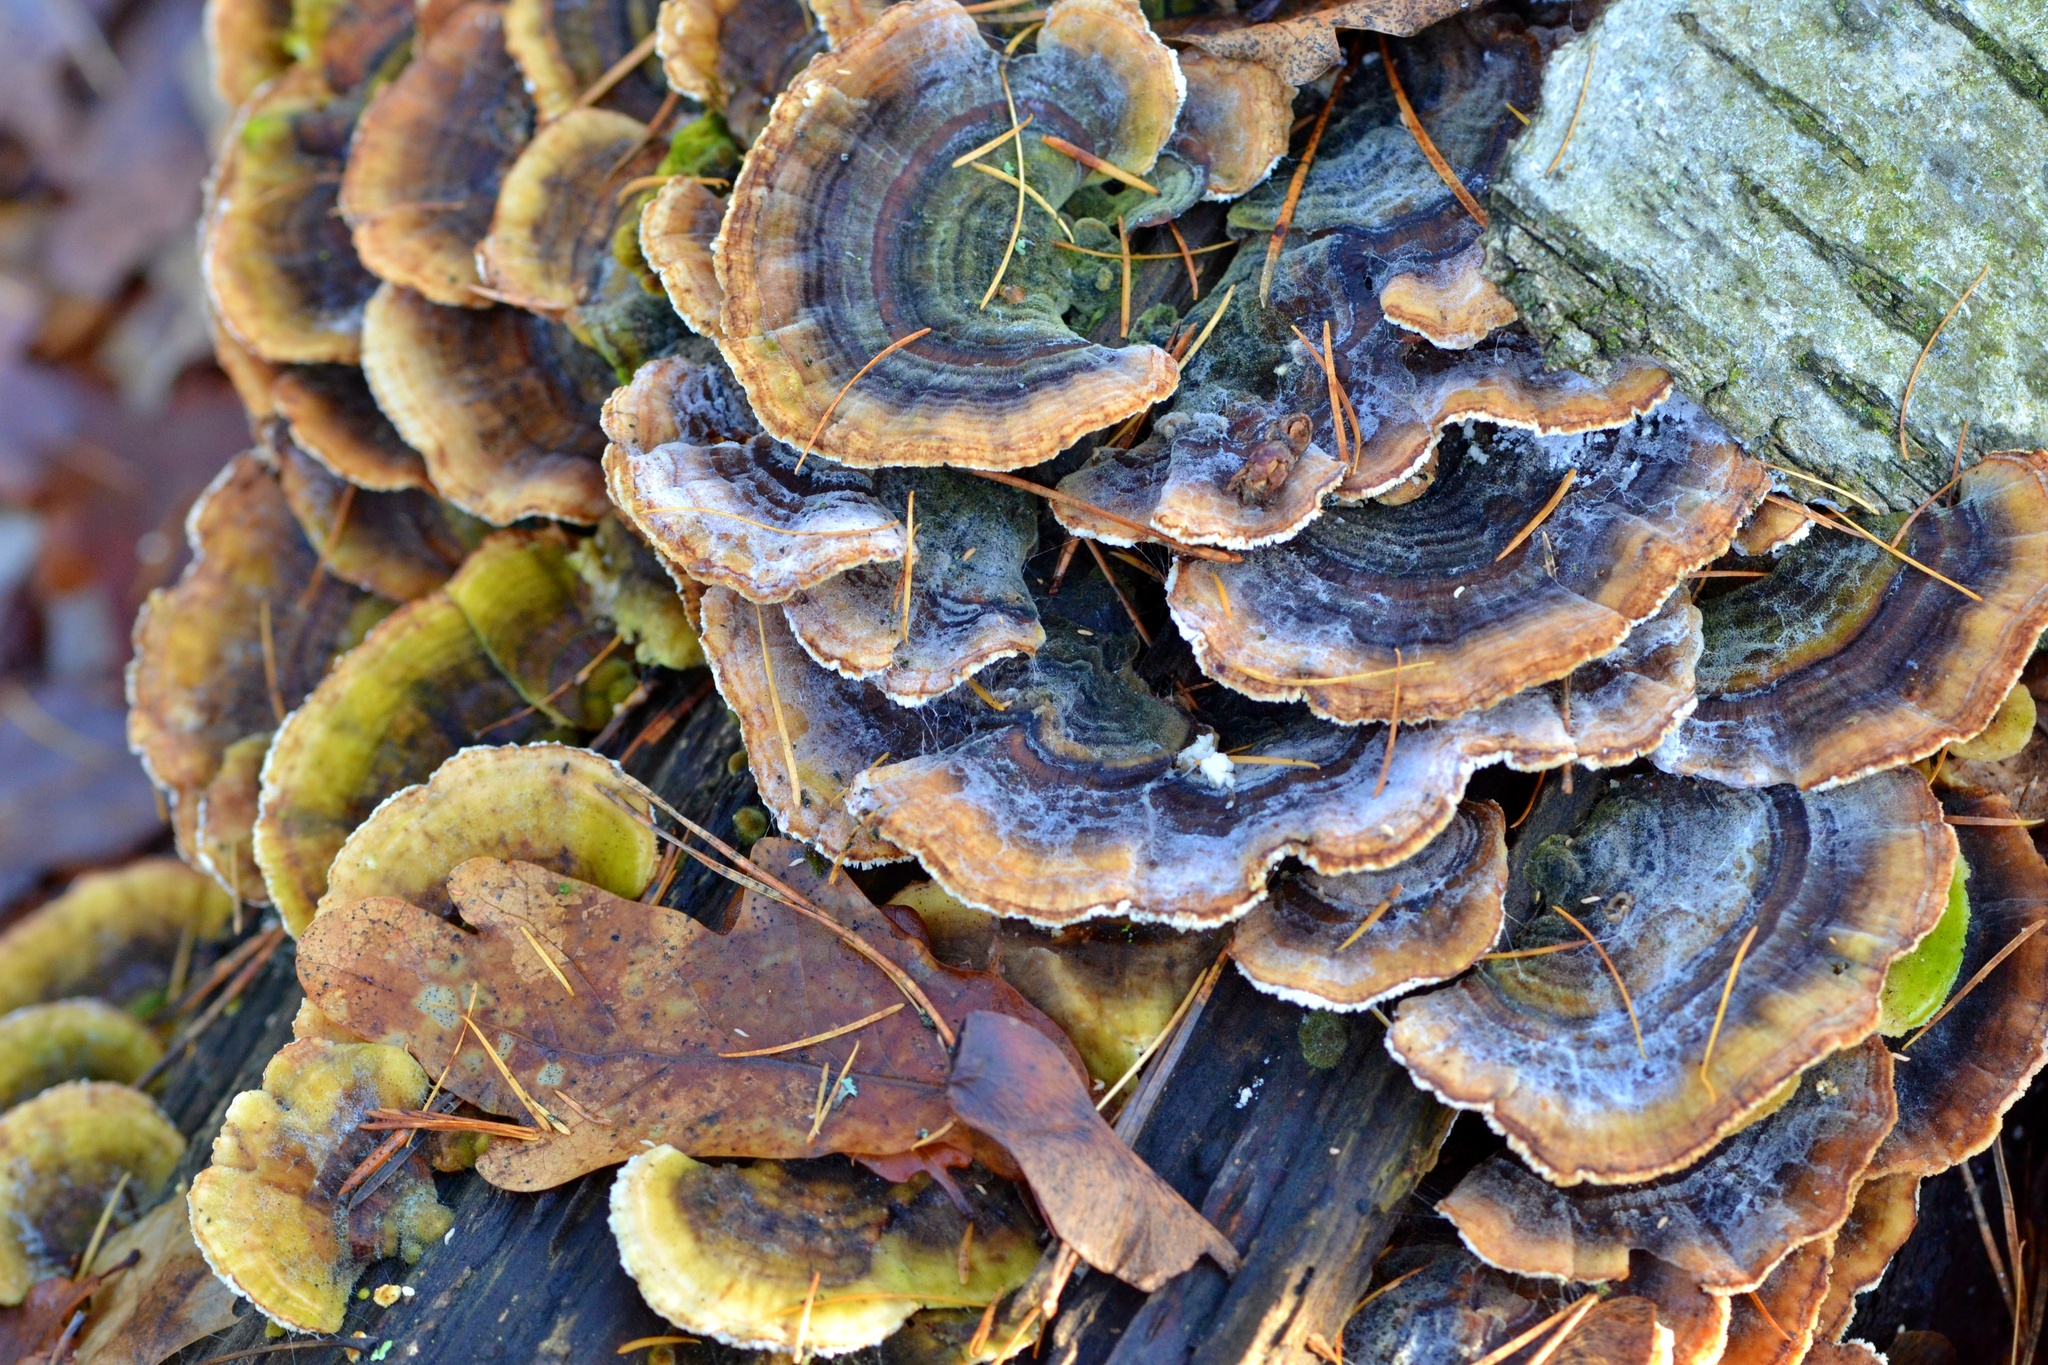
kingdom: Fungi
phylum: Basidiomycota
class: Agaricomycetes
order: Polyporales
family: Polyporaceae
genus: Trametes
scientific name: Trametes versicolor
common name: Turkeytail
